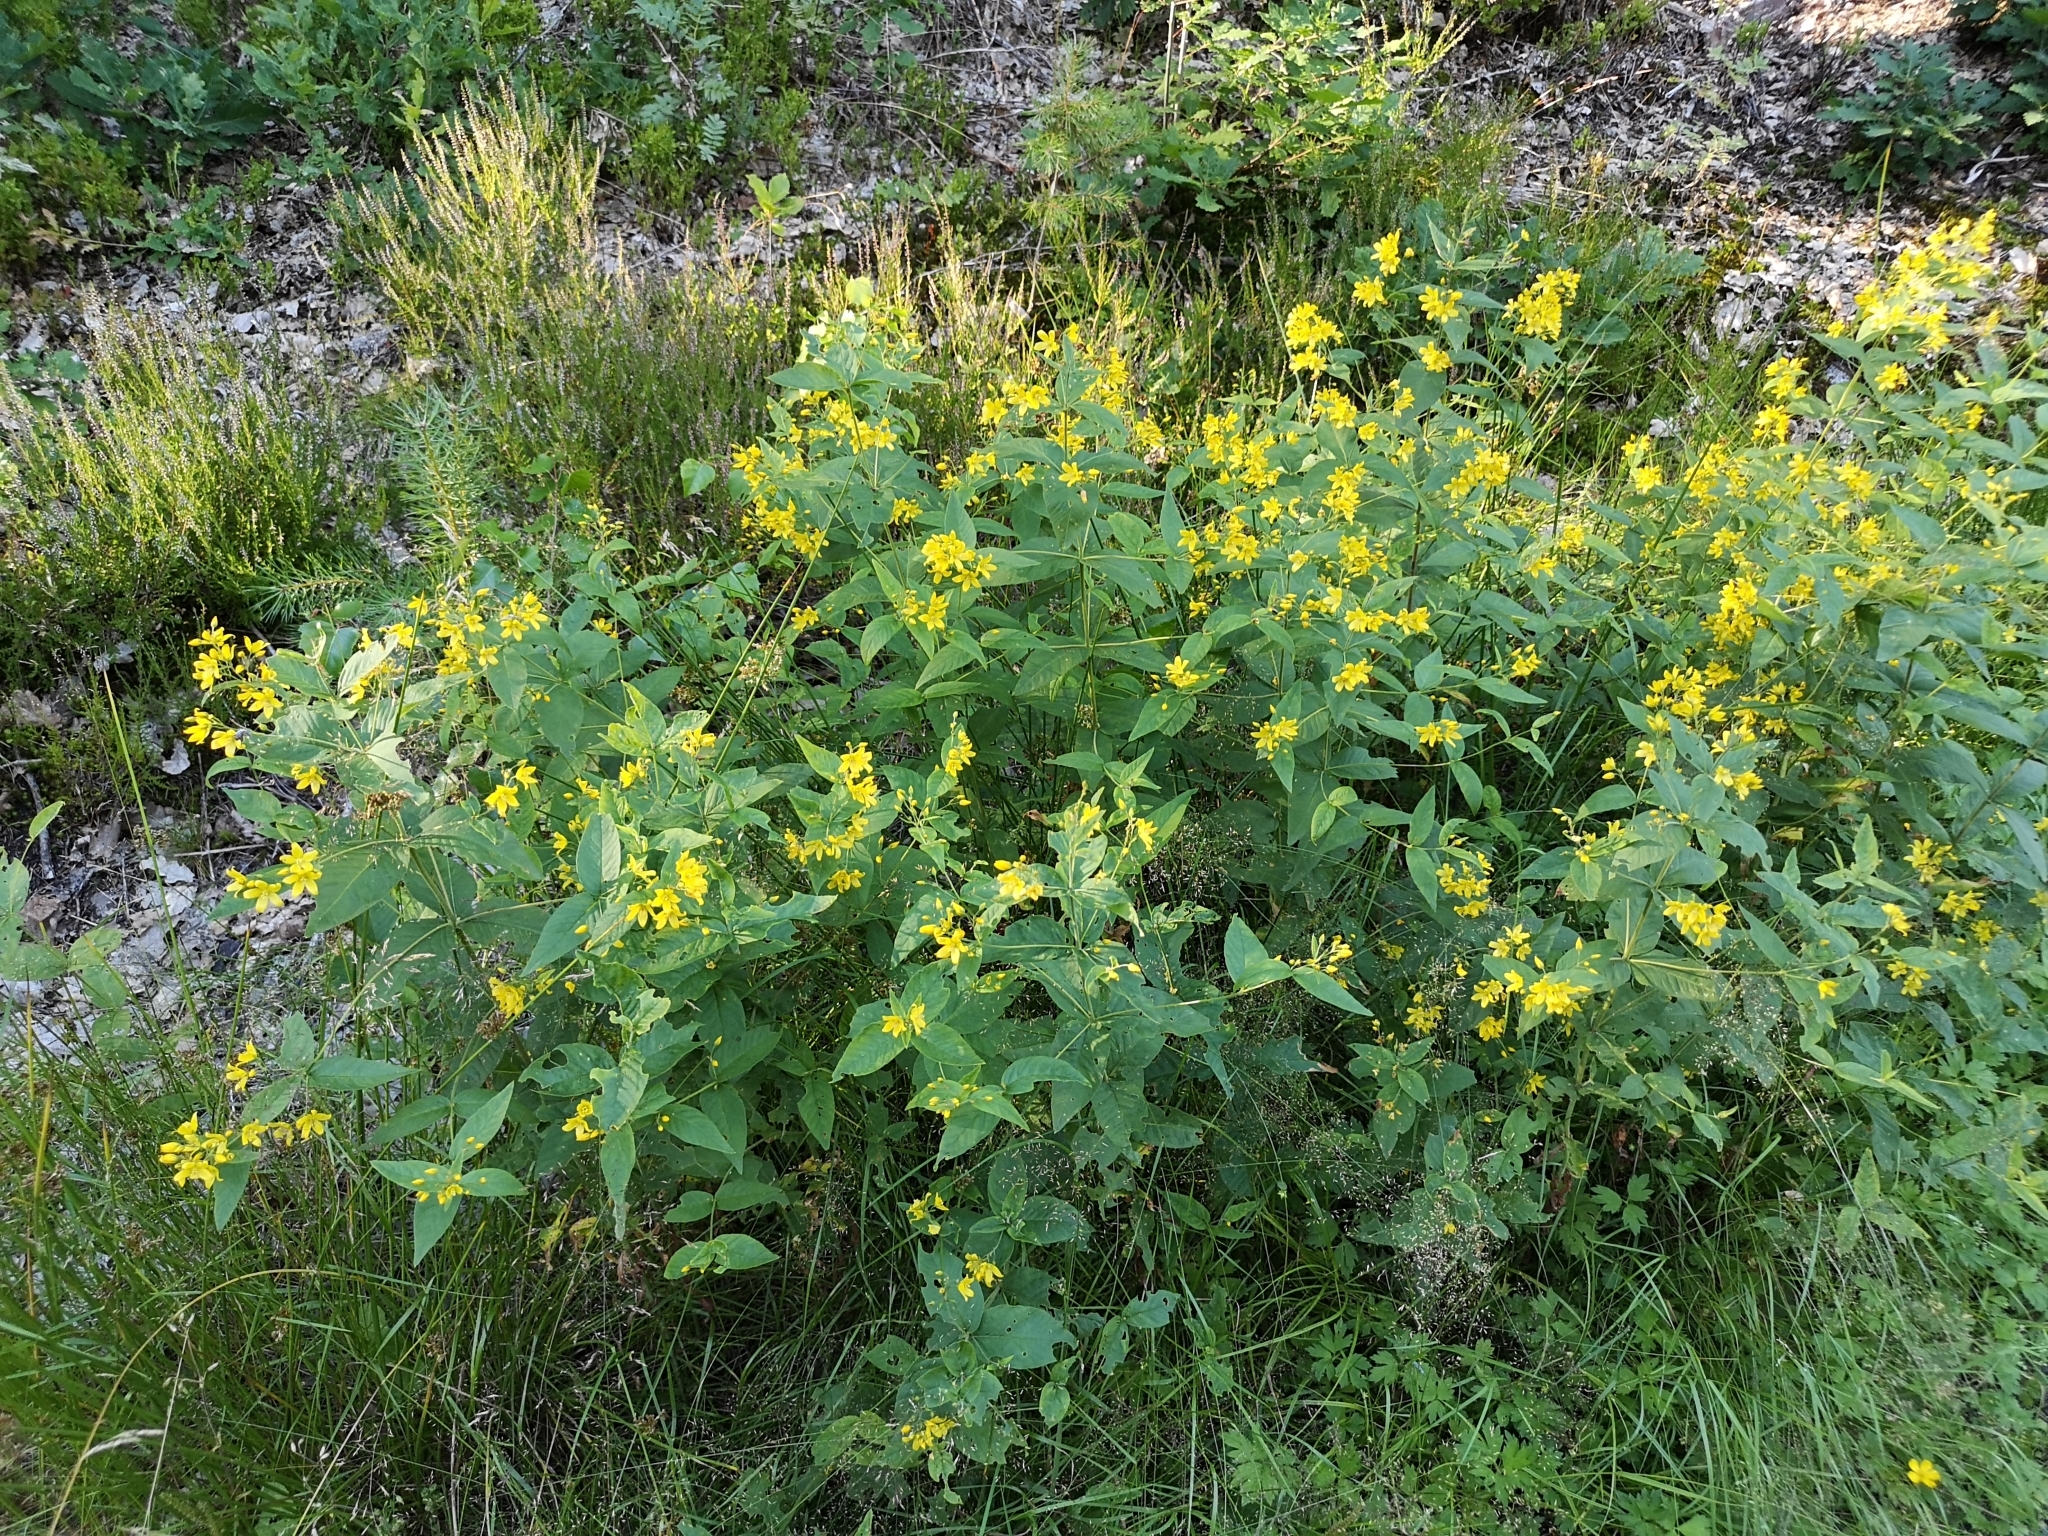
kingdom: Plantae
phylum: Tracheophyta
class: Magnoliopsida
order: Ericales
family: Primulaceae
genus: Lysimachia
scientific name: Lysimachia vulgaris
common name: Yellow loosestrife
